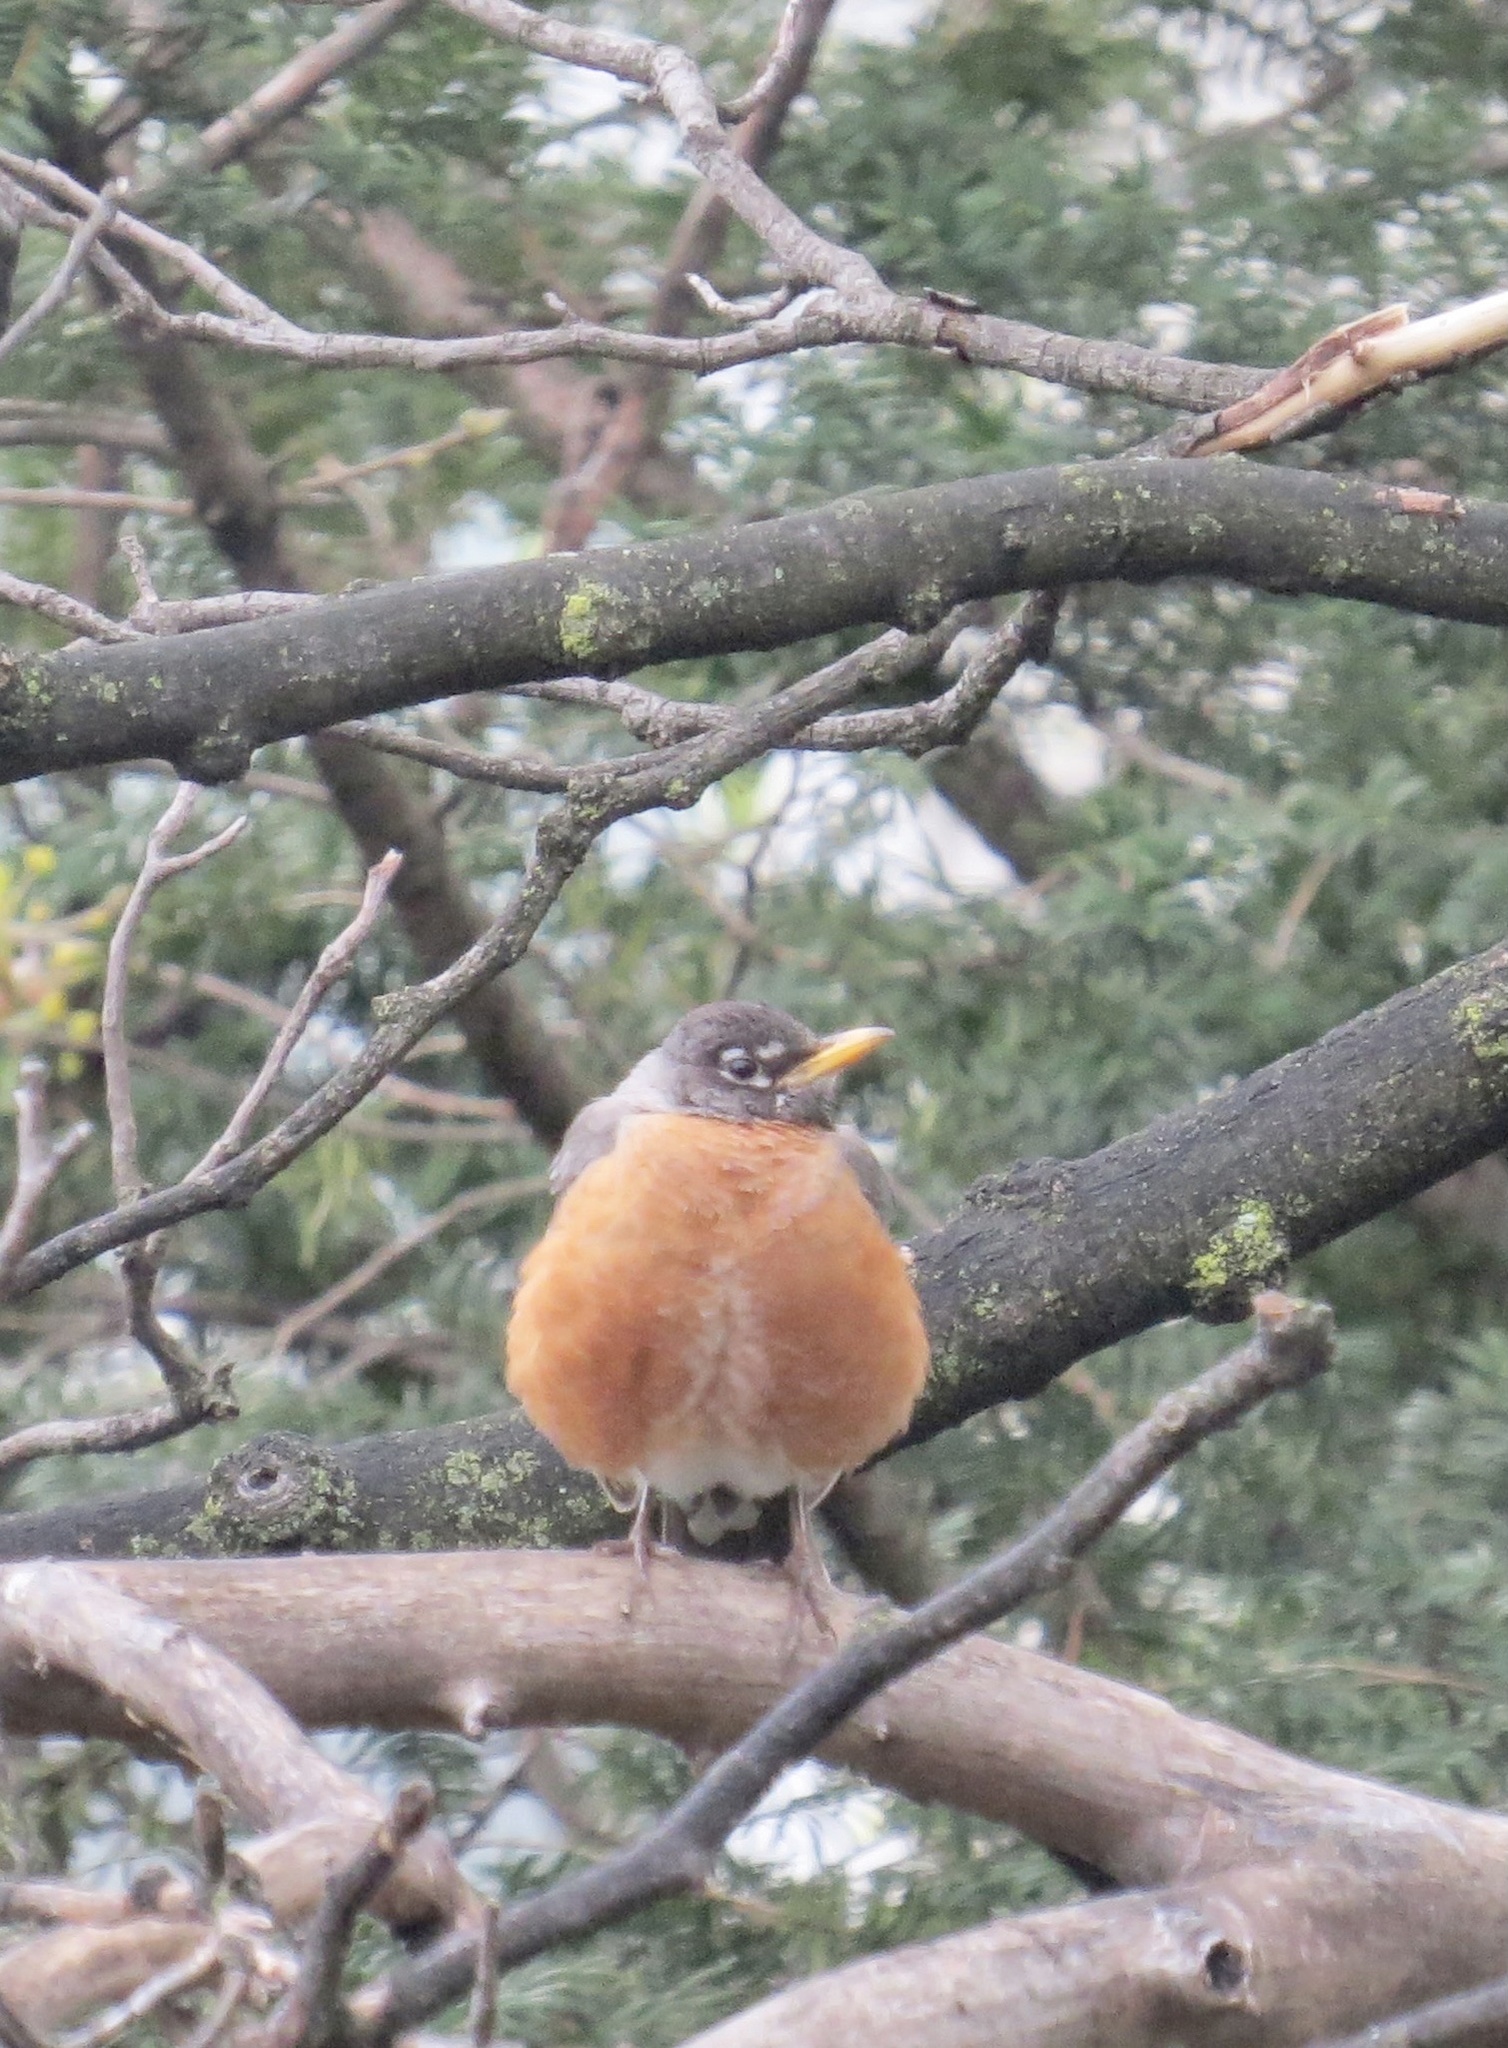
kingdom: Animalia
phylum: Chordata
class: Aves
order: Passeriformes
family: Turdidae
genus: Turdus
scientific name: Turdus migratorius
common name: American robin
